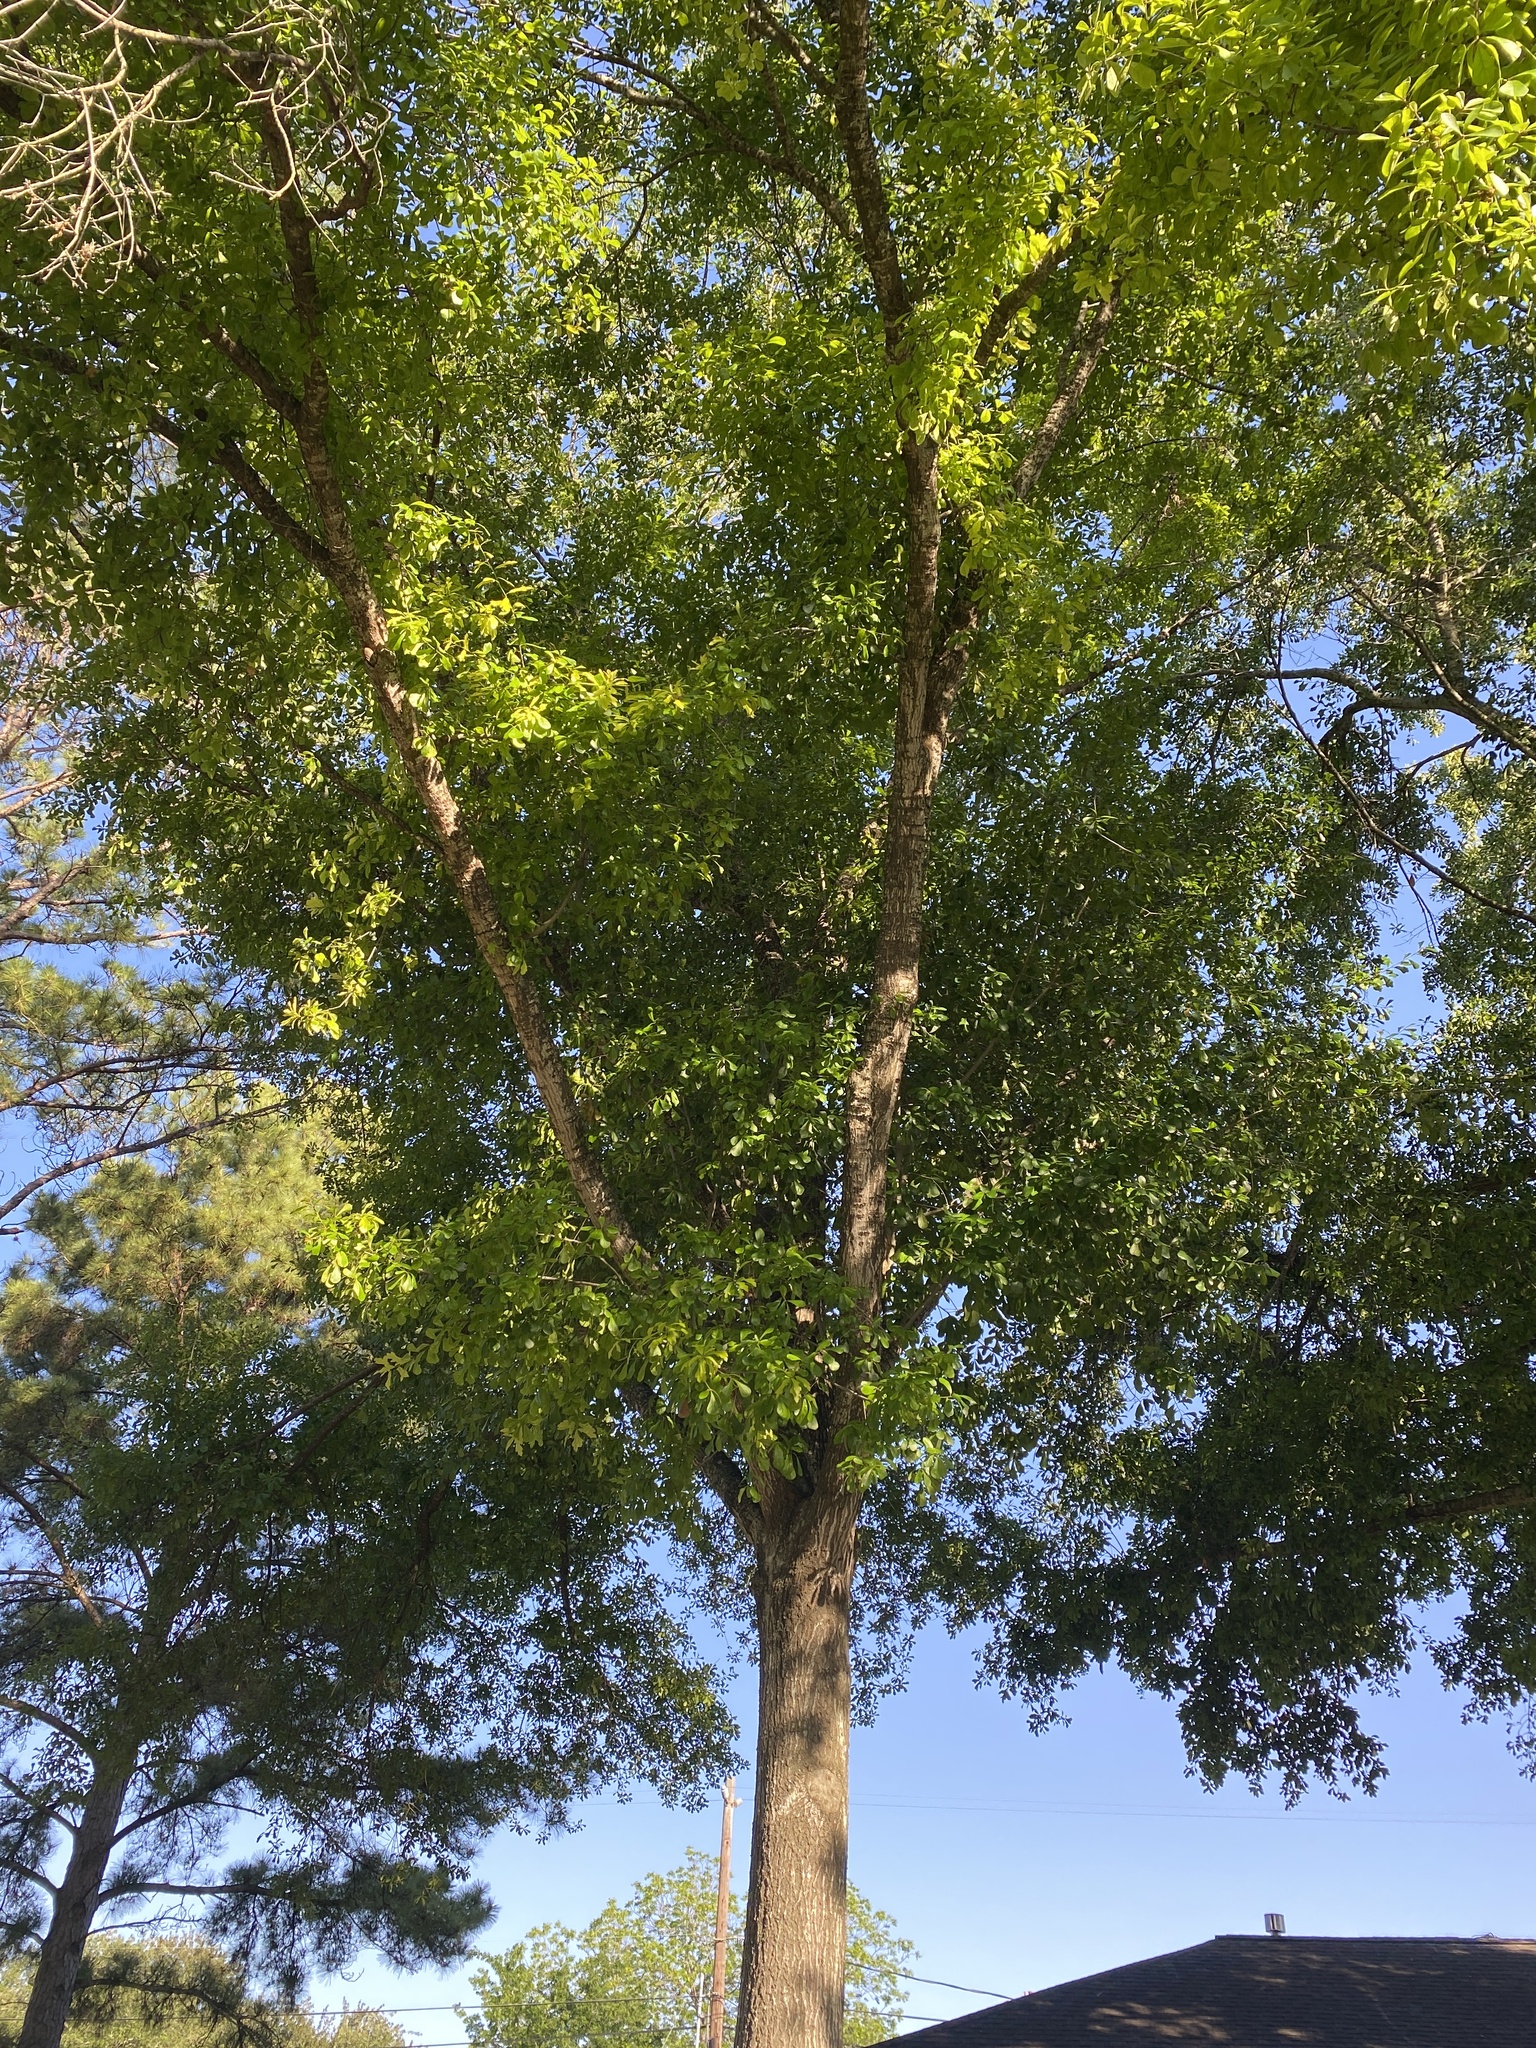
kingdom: Plantae
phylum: Tracheophyta
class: Magnoliopsida
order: Fagales
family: Fagaceae
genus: Quercus
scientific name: Quercus nigra
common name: Water oak
